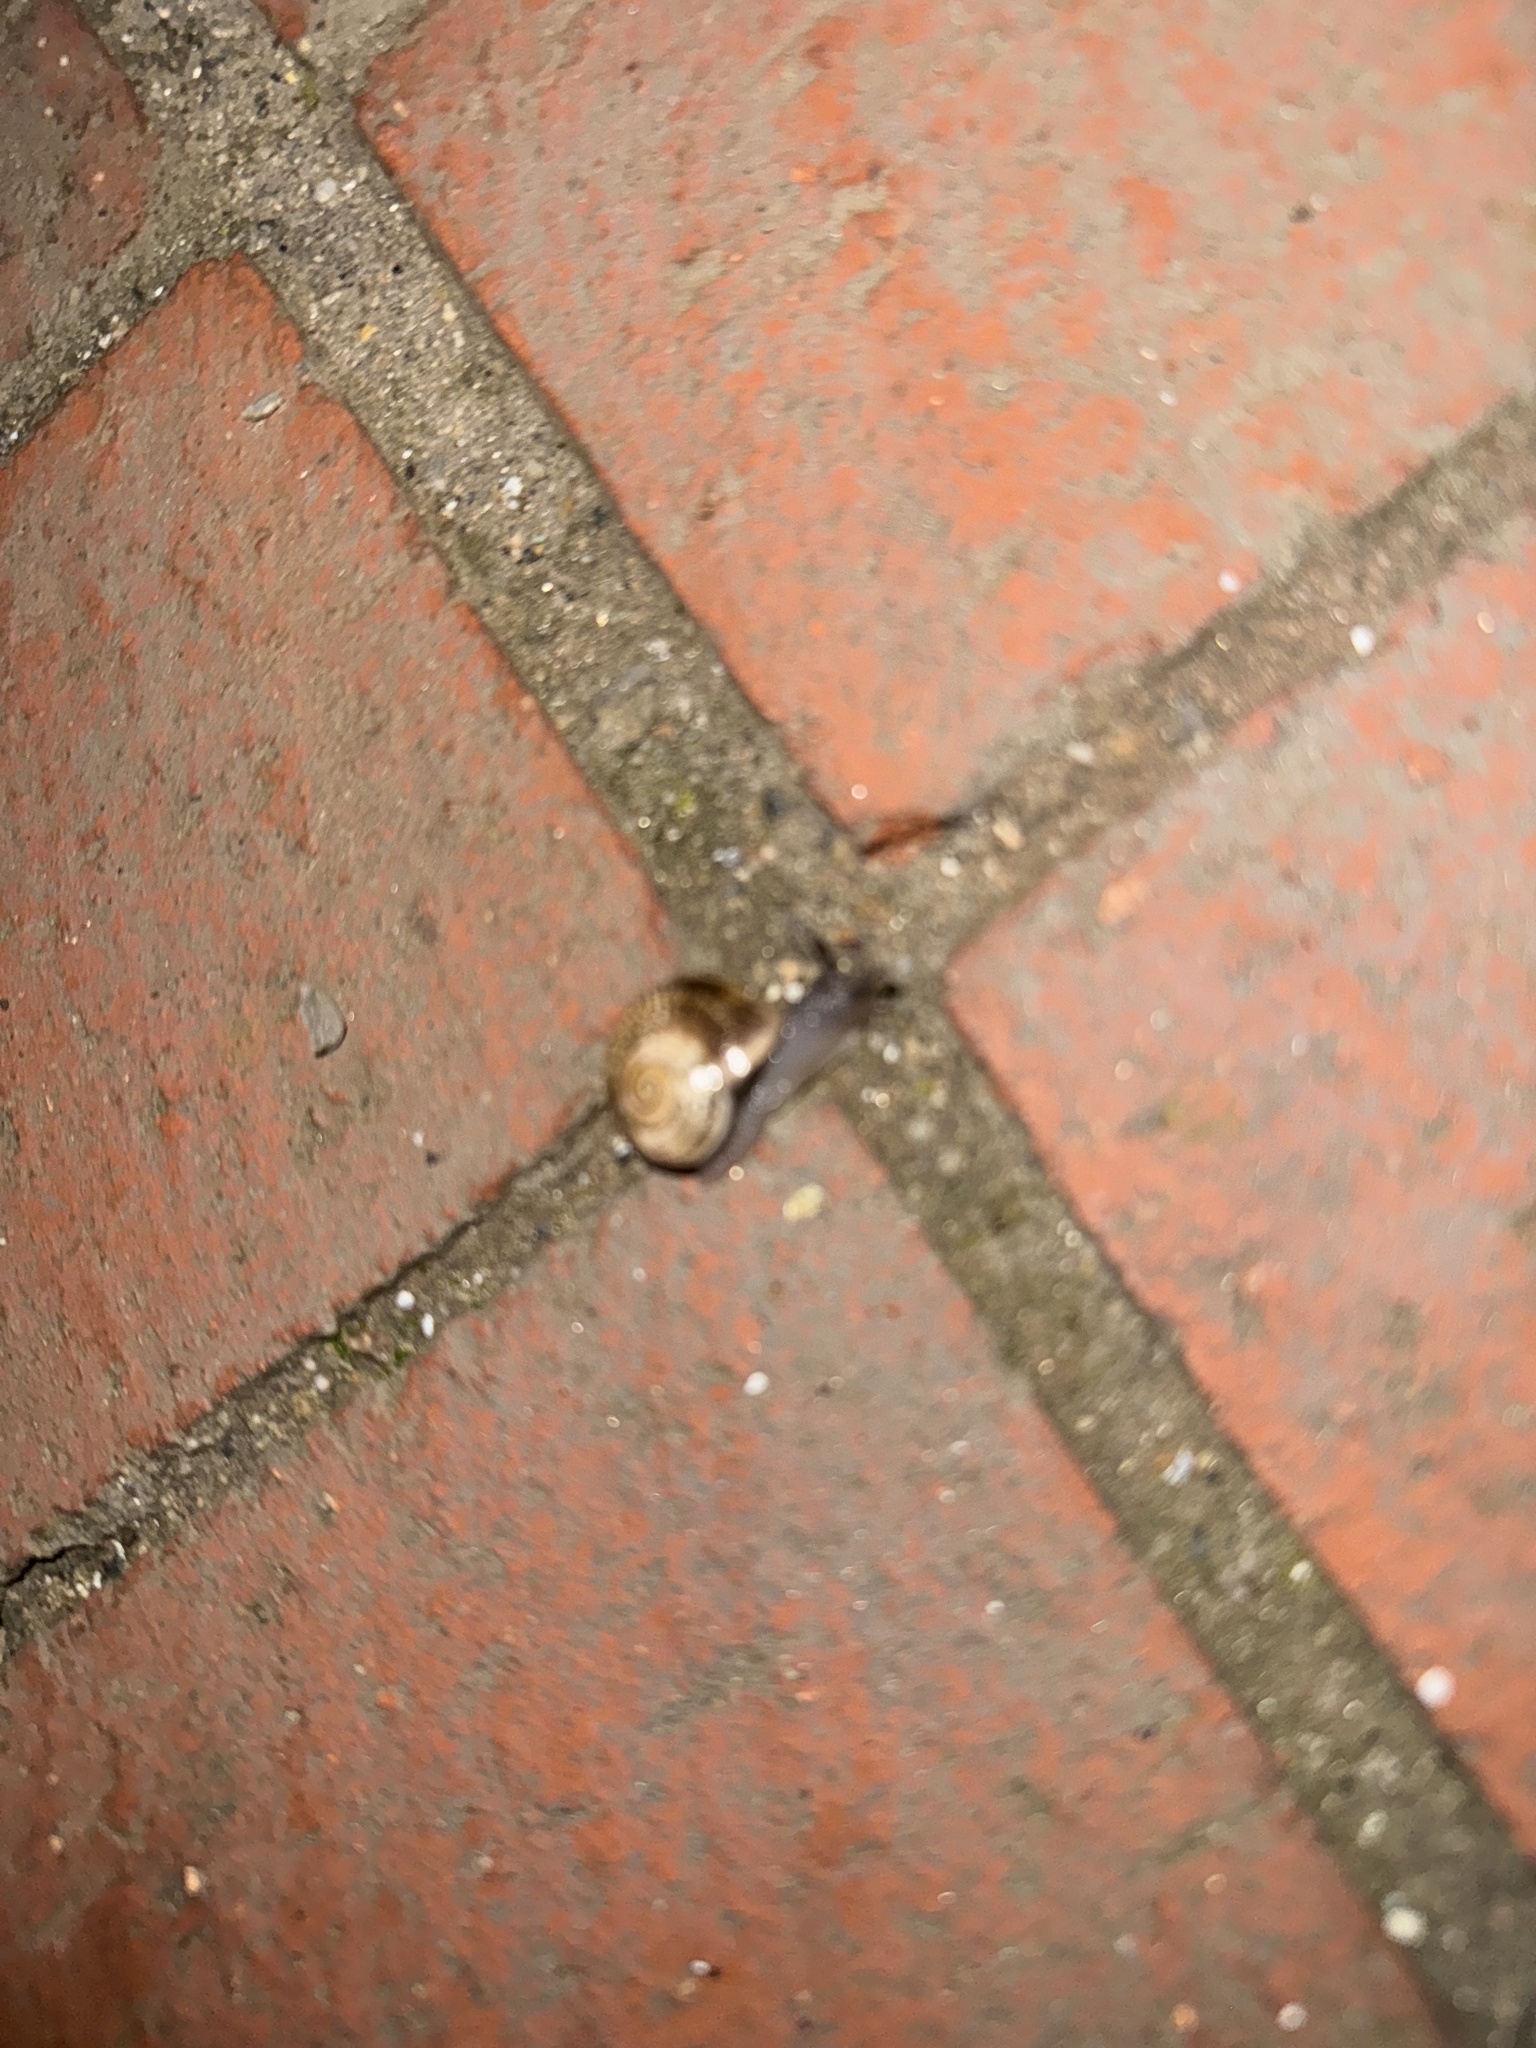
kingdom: Animalia
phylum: Mollusca
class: Gastropoda
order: Stylommatophora
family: Helicidae
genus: Otala
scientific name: Otala lactea
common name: Milk snail
